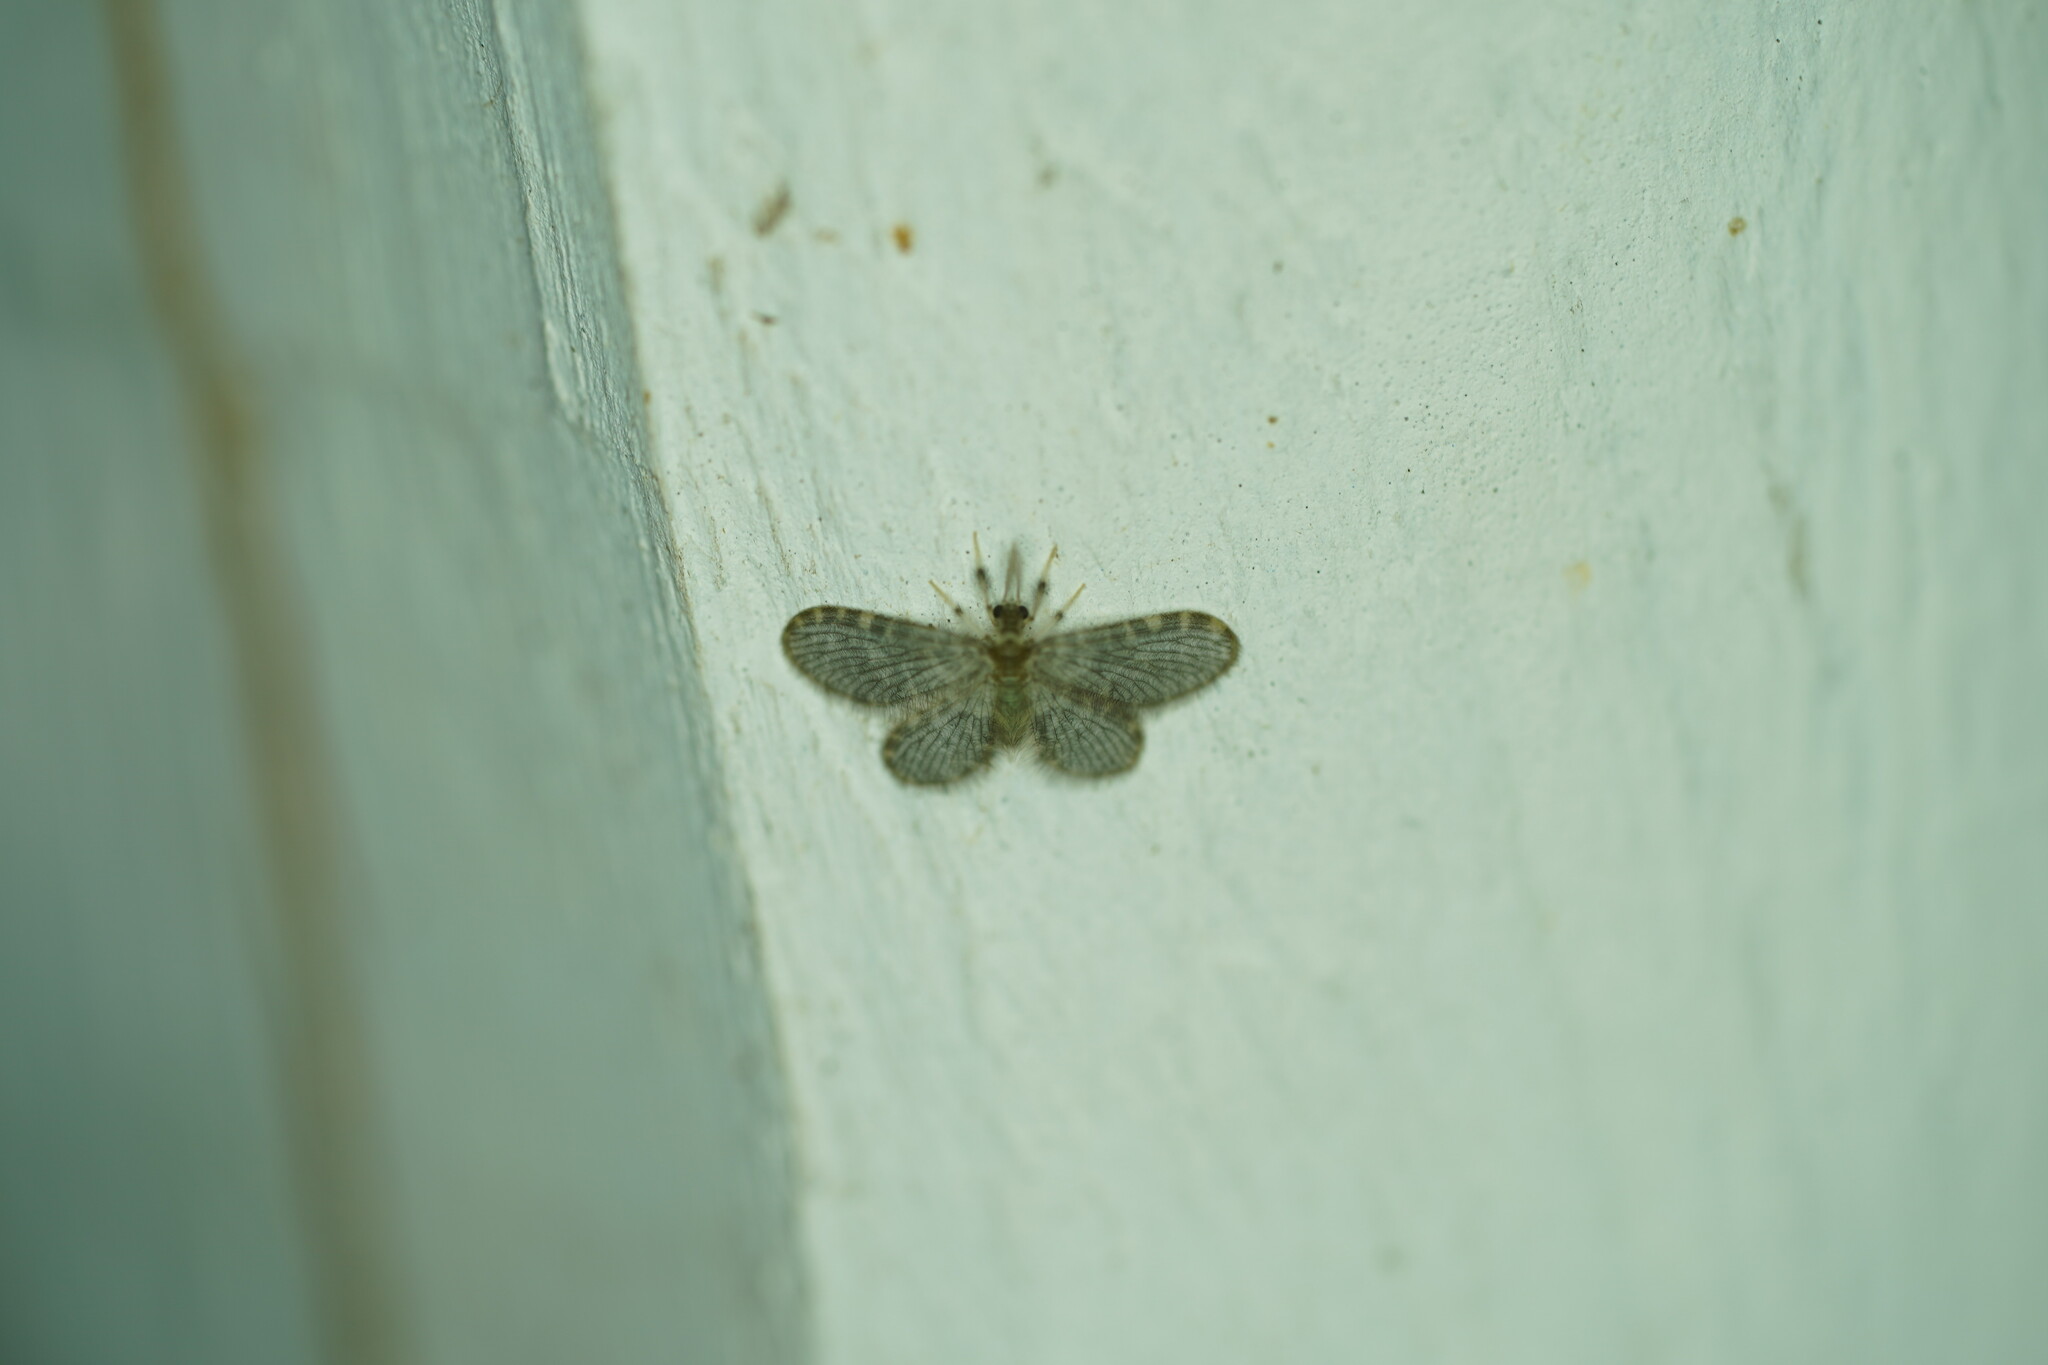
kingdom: Animalia
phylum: Arthropoda
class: Insecta
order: Neuroptera
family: Dilaridae
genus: Nallachius
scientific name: Nallachius americanus
